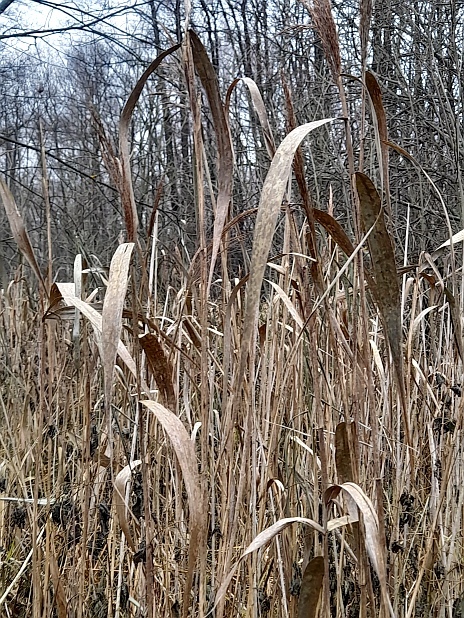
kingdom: Plantae
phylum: Tracheophyta
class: Liliopsida
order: Poales
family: Poaceae
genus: Phragmites
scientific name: Phragmites australis
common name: Common reed
